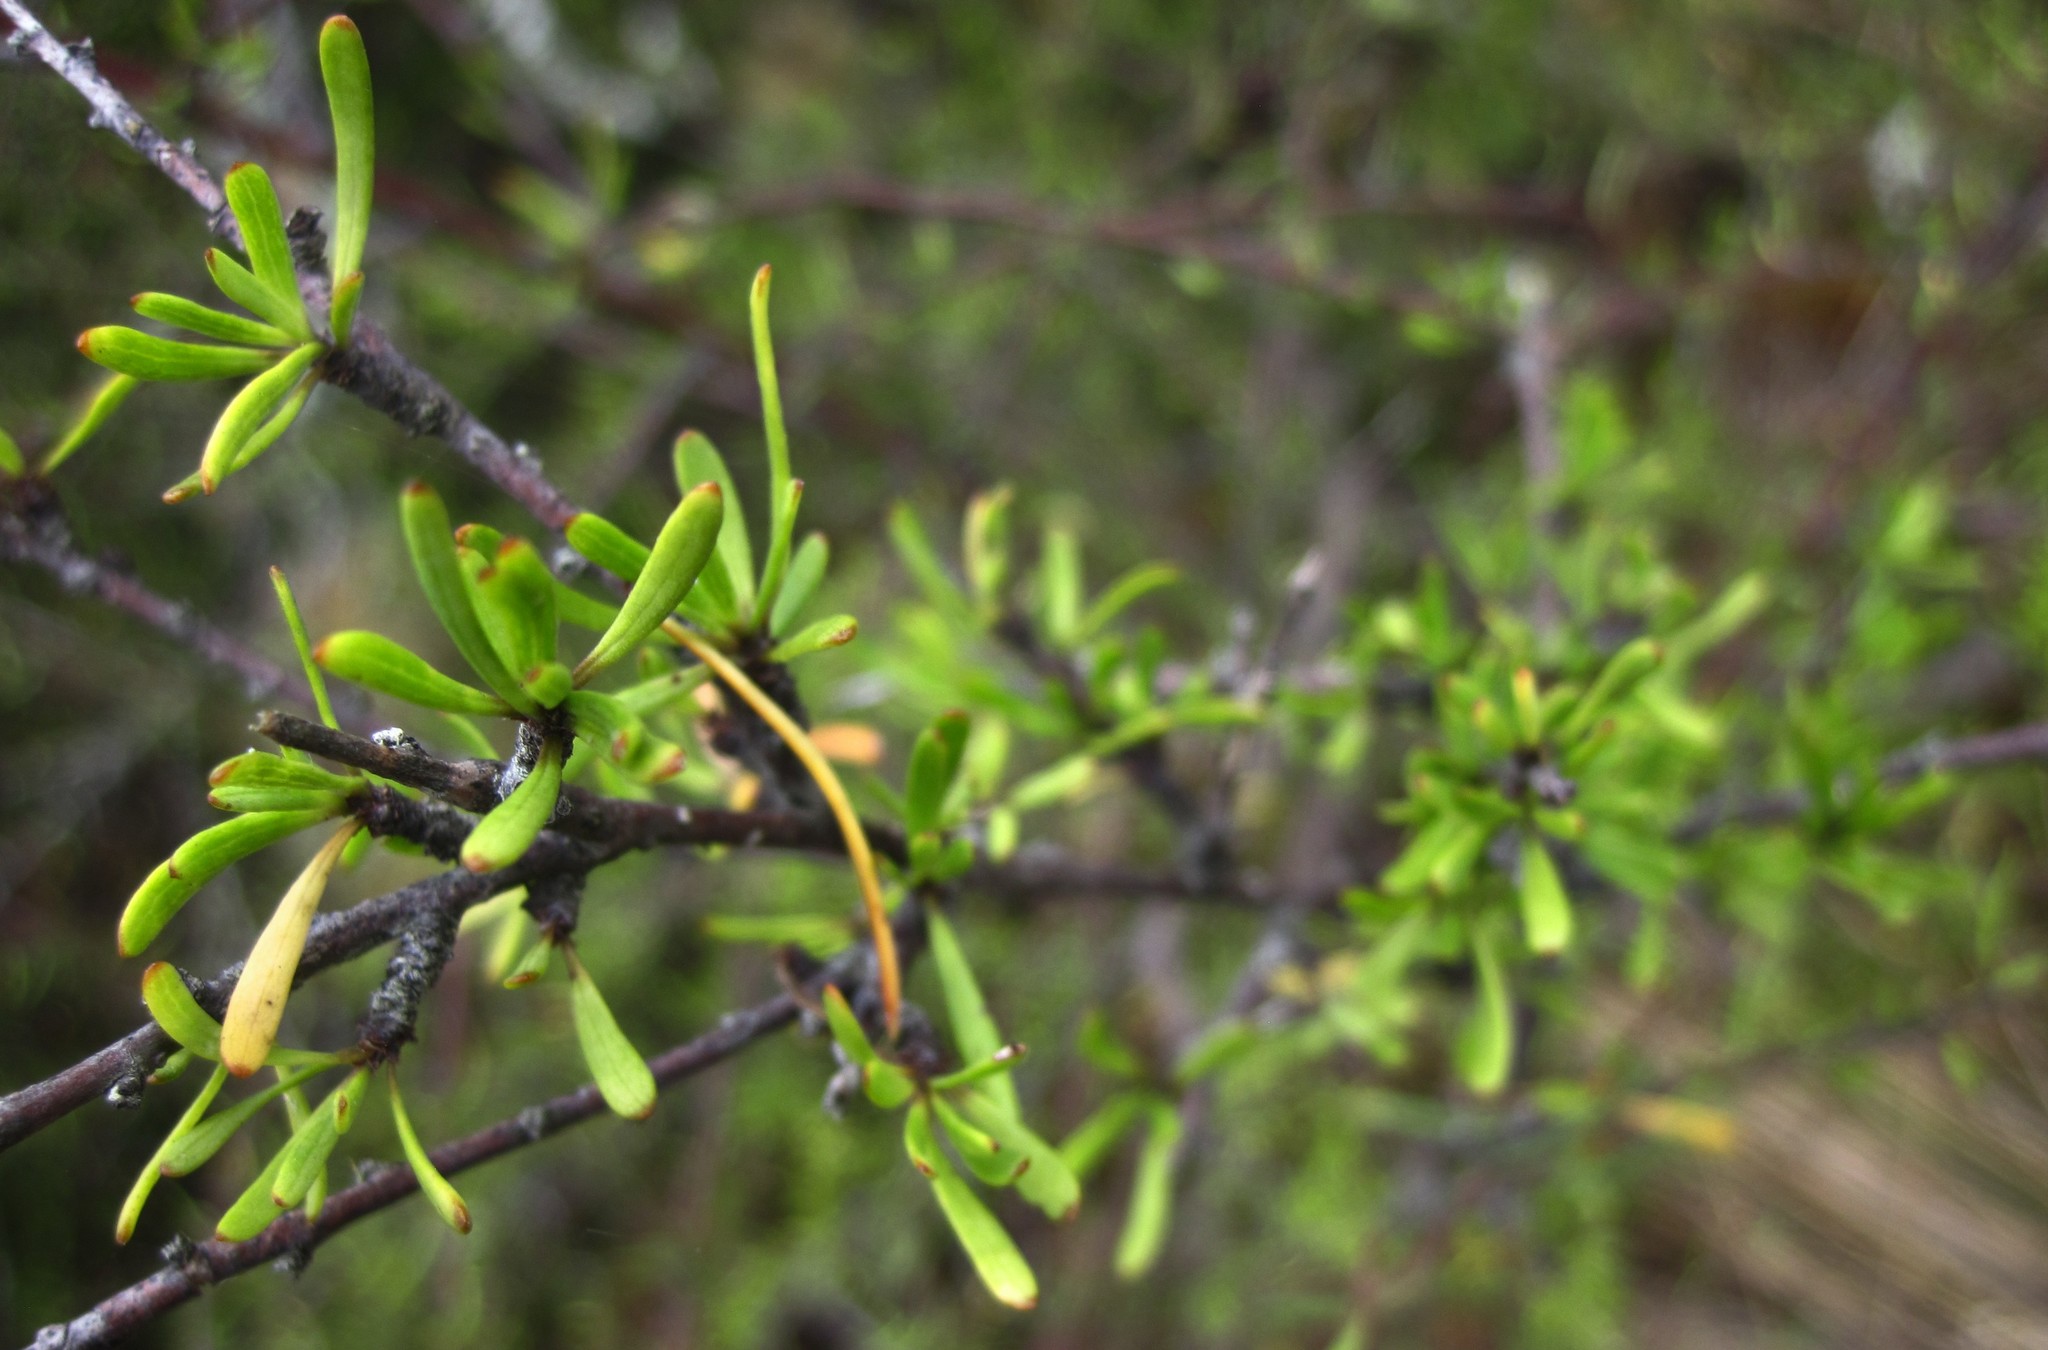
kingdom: Plantae
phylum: Tracheophyta
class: Magnoliopsida
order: Malvales
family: Malvaceae
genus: Plagianthus
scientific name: Plagianthus divaricatus
